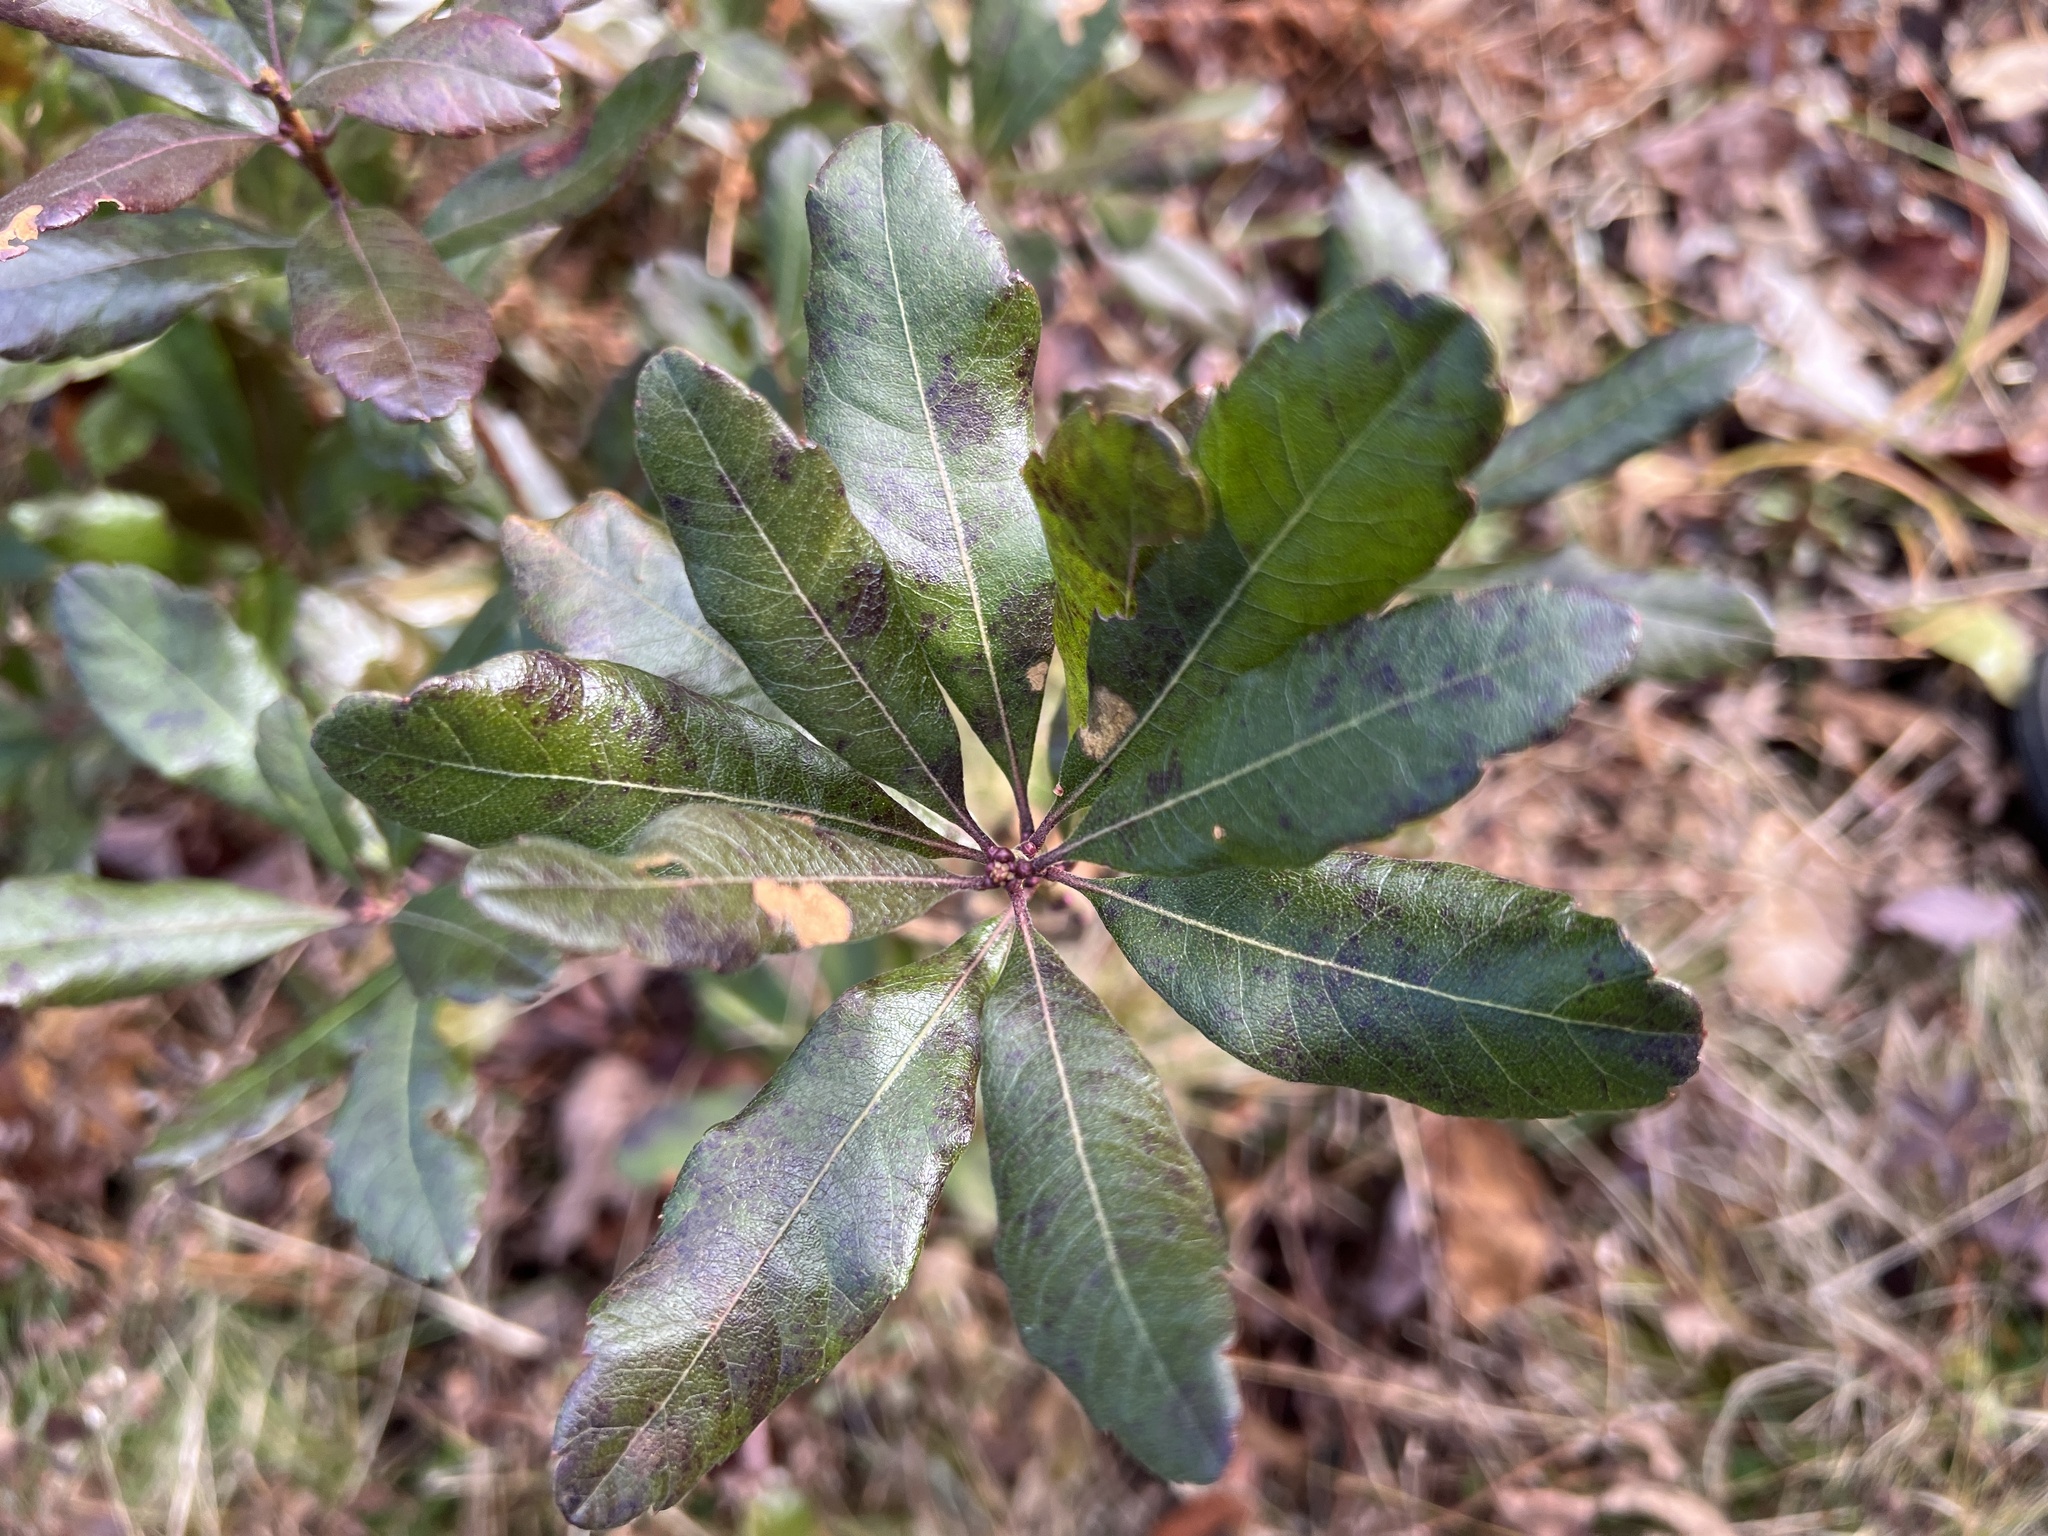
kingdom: Plantae
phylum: Tracheophyta
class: Magnoliopsida
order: Fagales
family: Myricaceae
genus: Morella
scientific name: Morella pensylvanica
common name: Northern bayberry
